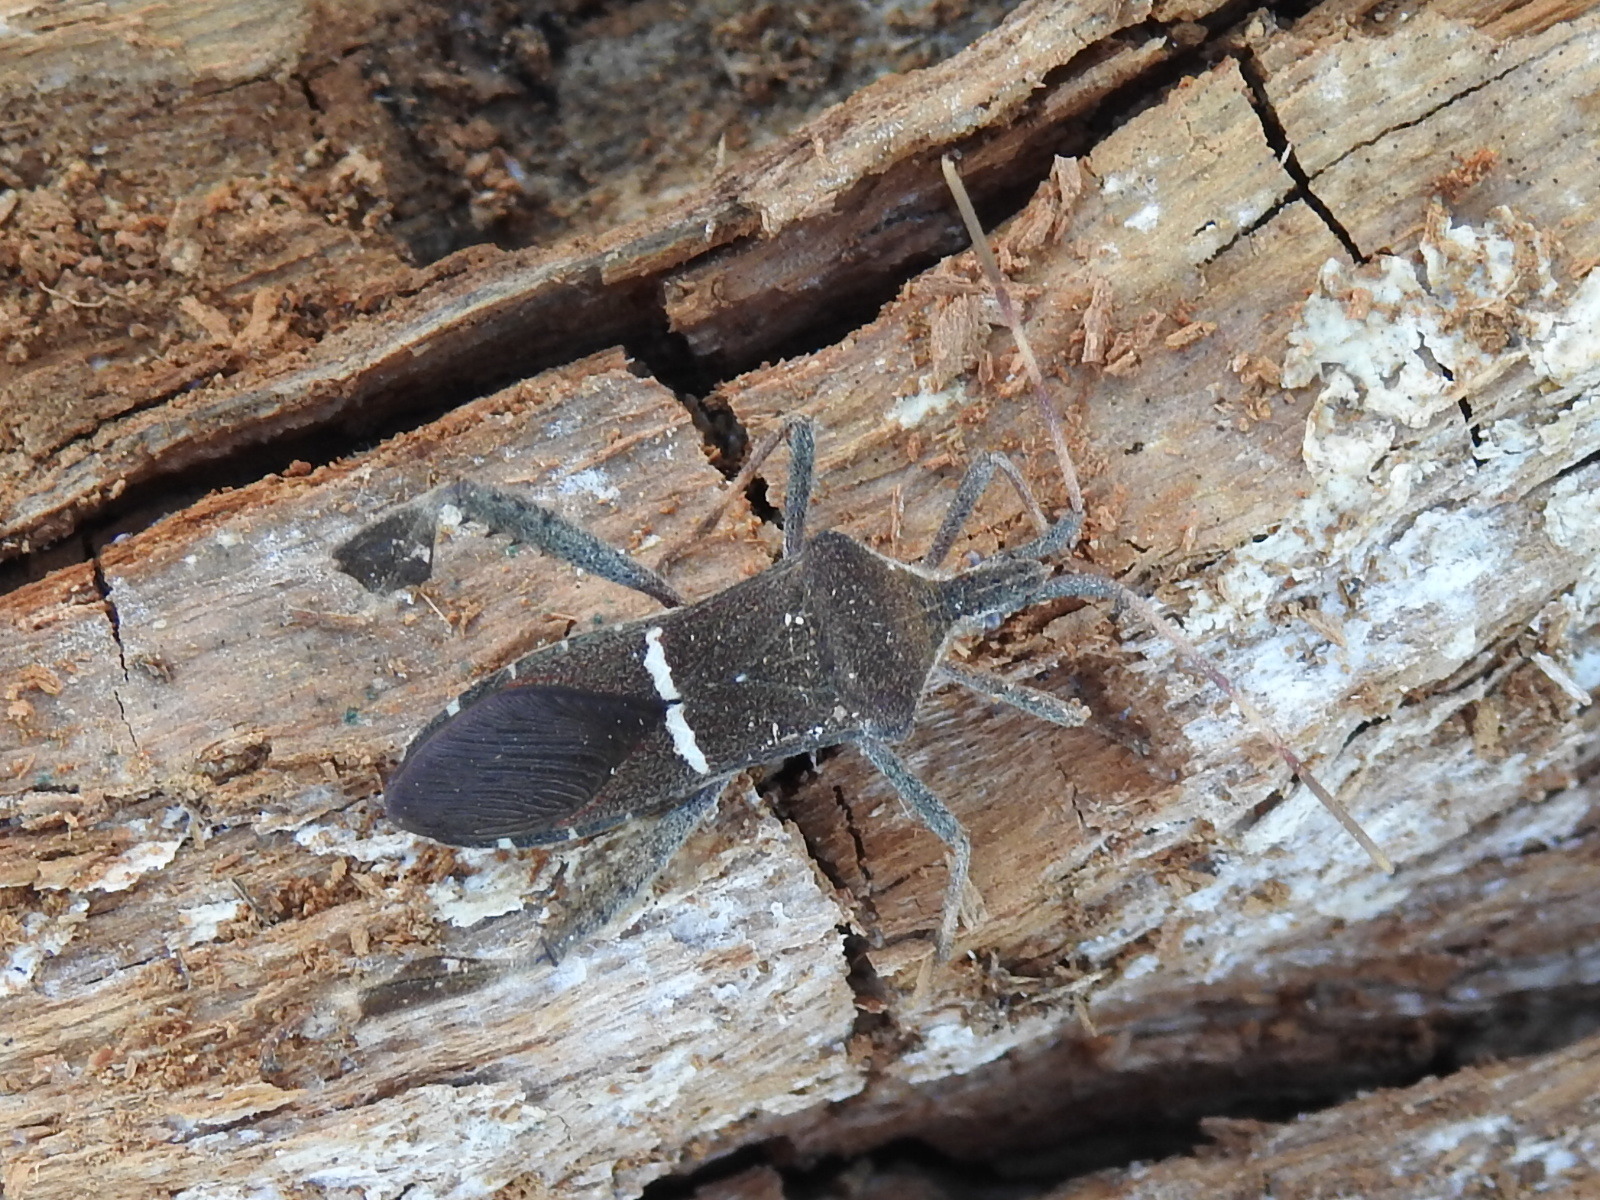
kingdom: Animalia
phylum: Arthropoda
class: Insecta
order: Hemiptera
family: Coreidae
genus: Leptoglossus
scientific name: Leptoglossus phyllopus
